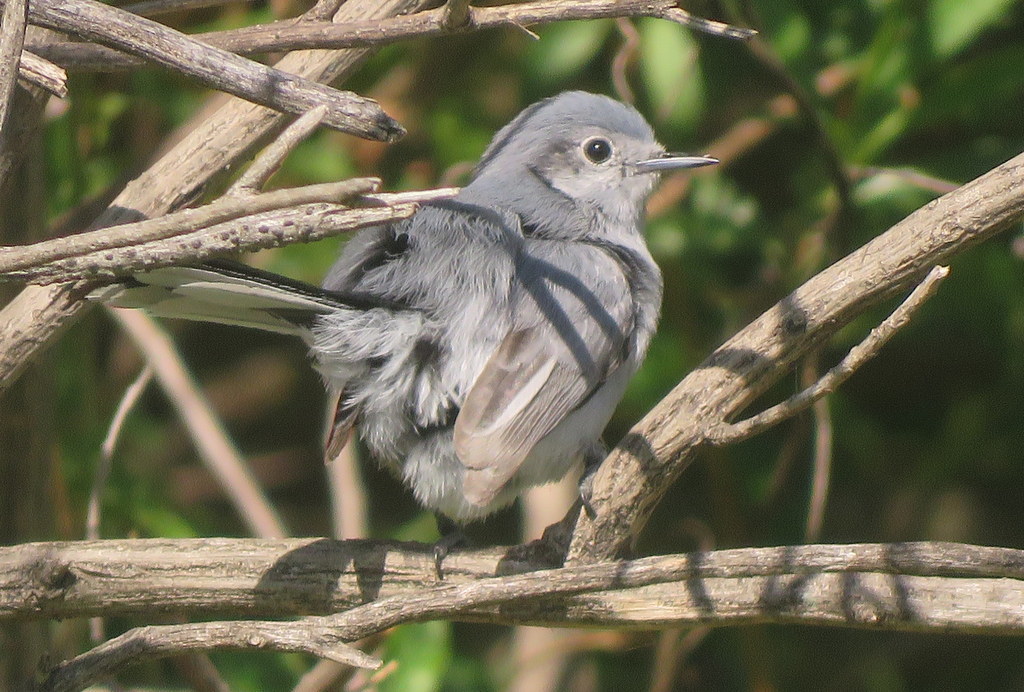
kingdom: Animalia
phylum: Chordata
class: Aves
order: Passeriformes
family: Polioptilidae
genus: Polioptila
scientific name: Polioptila dumicola
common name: Masked gnatcatcher
